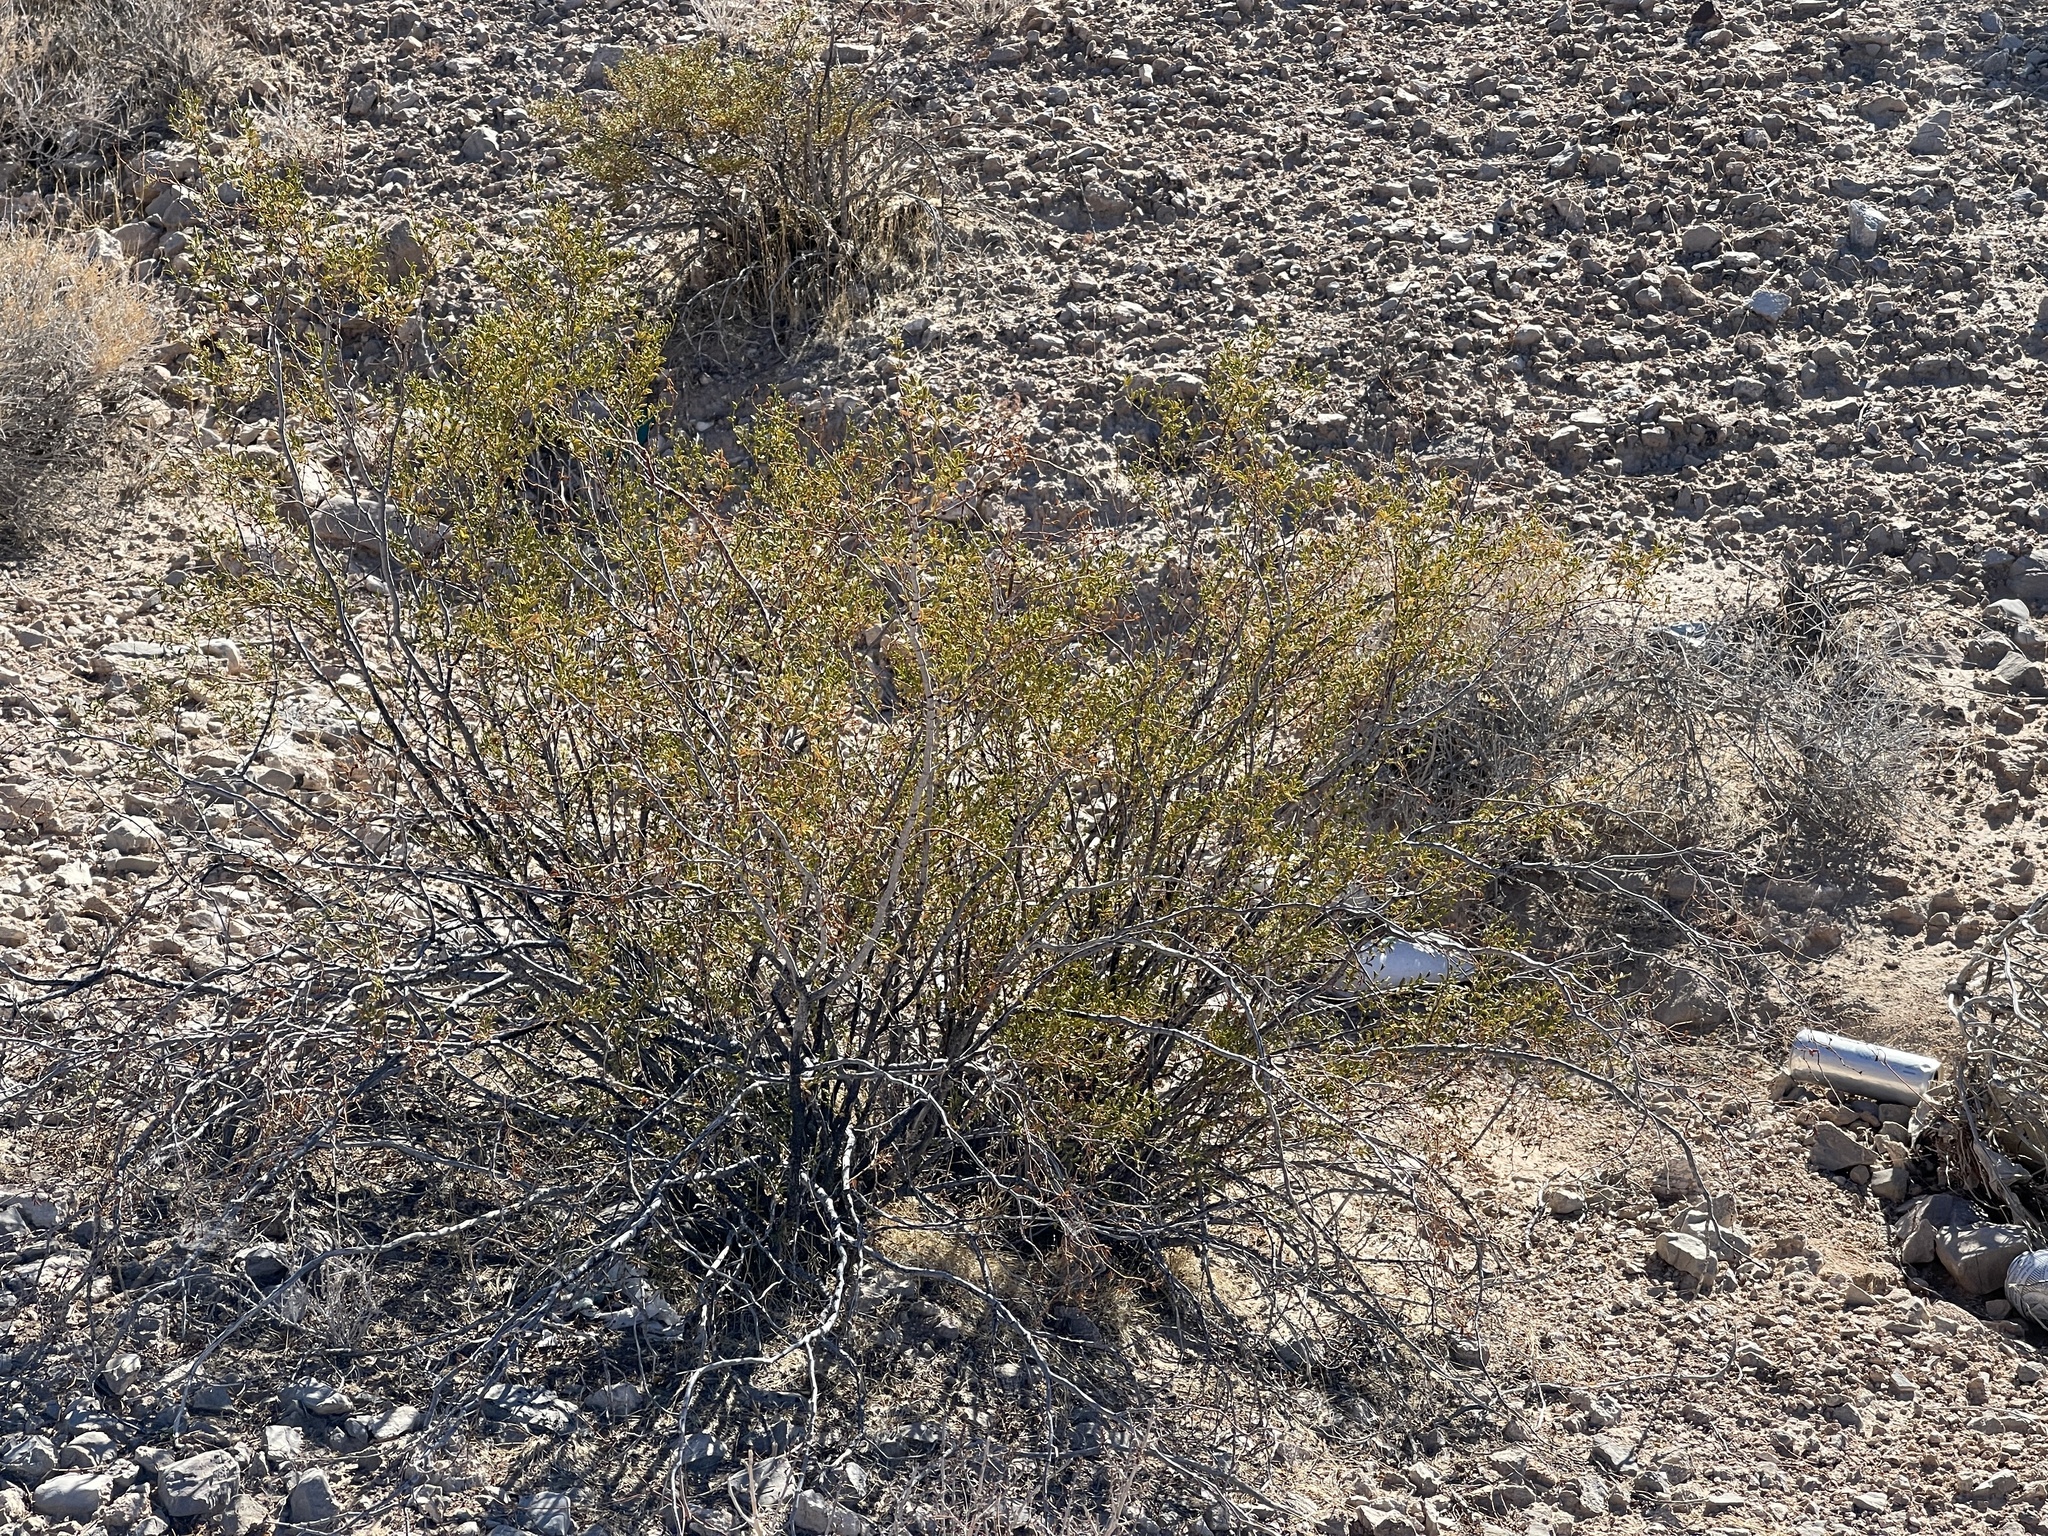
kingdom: Plantae
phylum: Tracheophyta
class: Magnoliopsida
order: Zygophyllales
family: Zygophyllaceae
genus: Larrea
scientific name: Larrea tridentata
